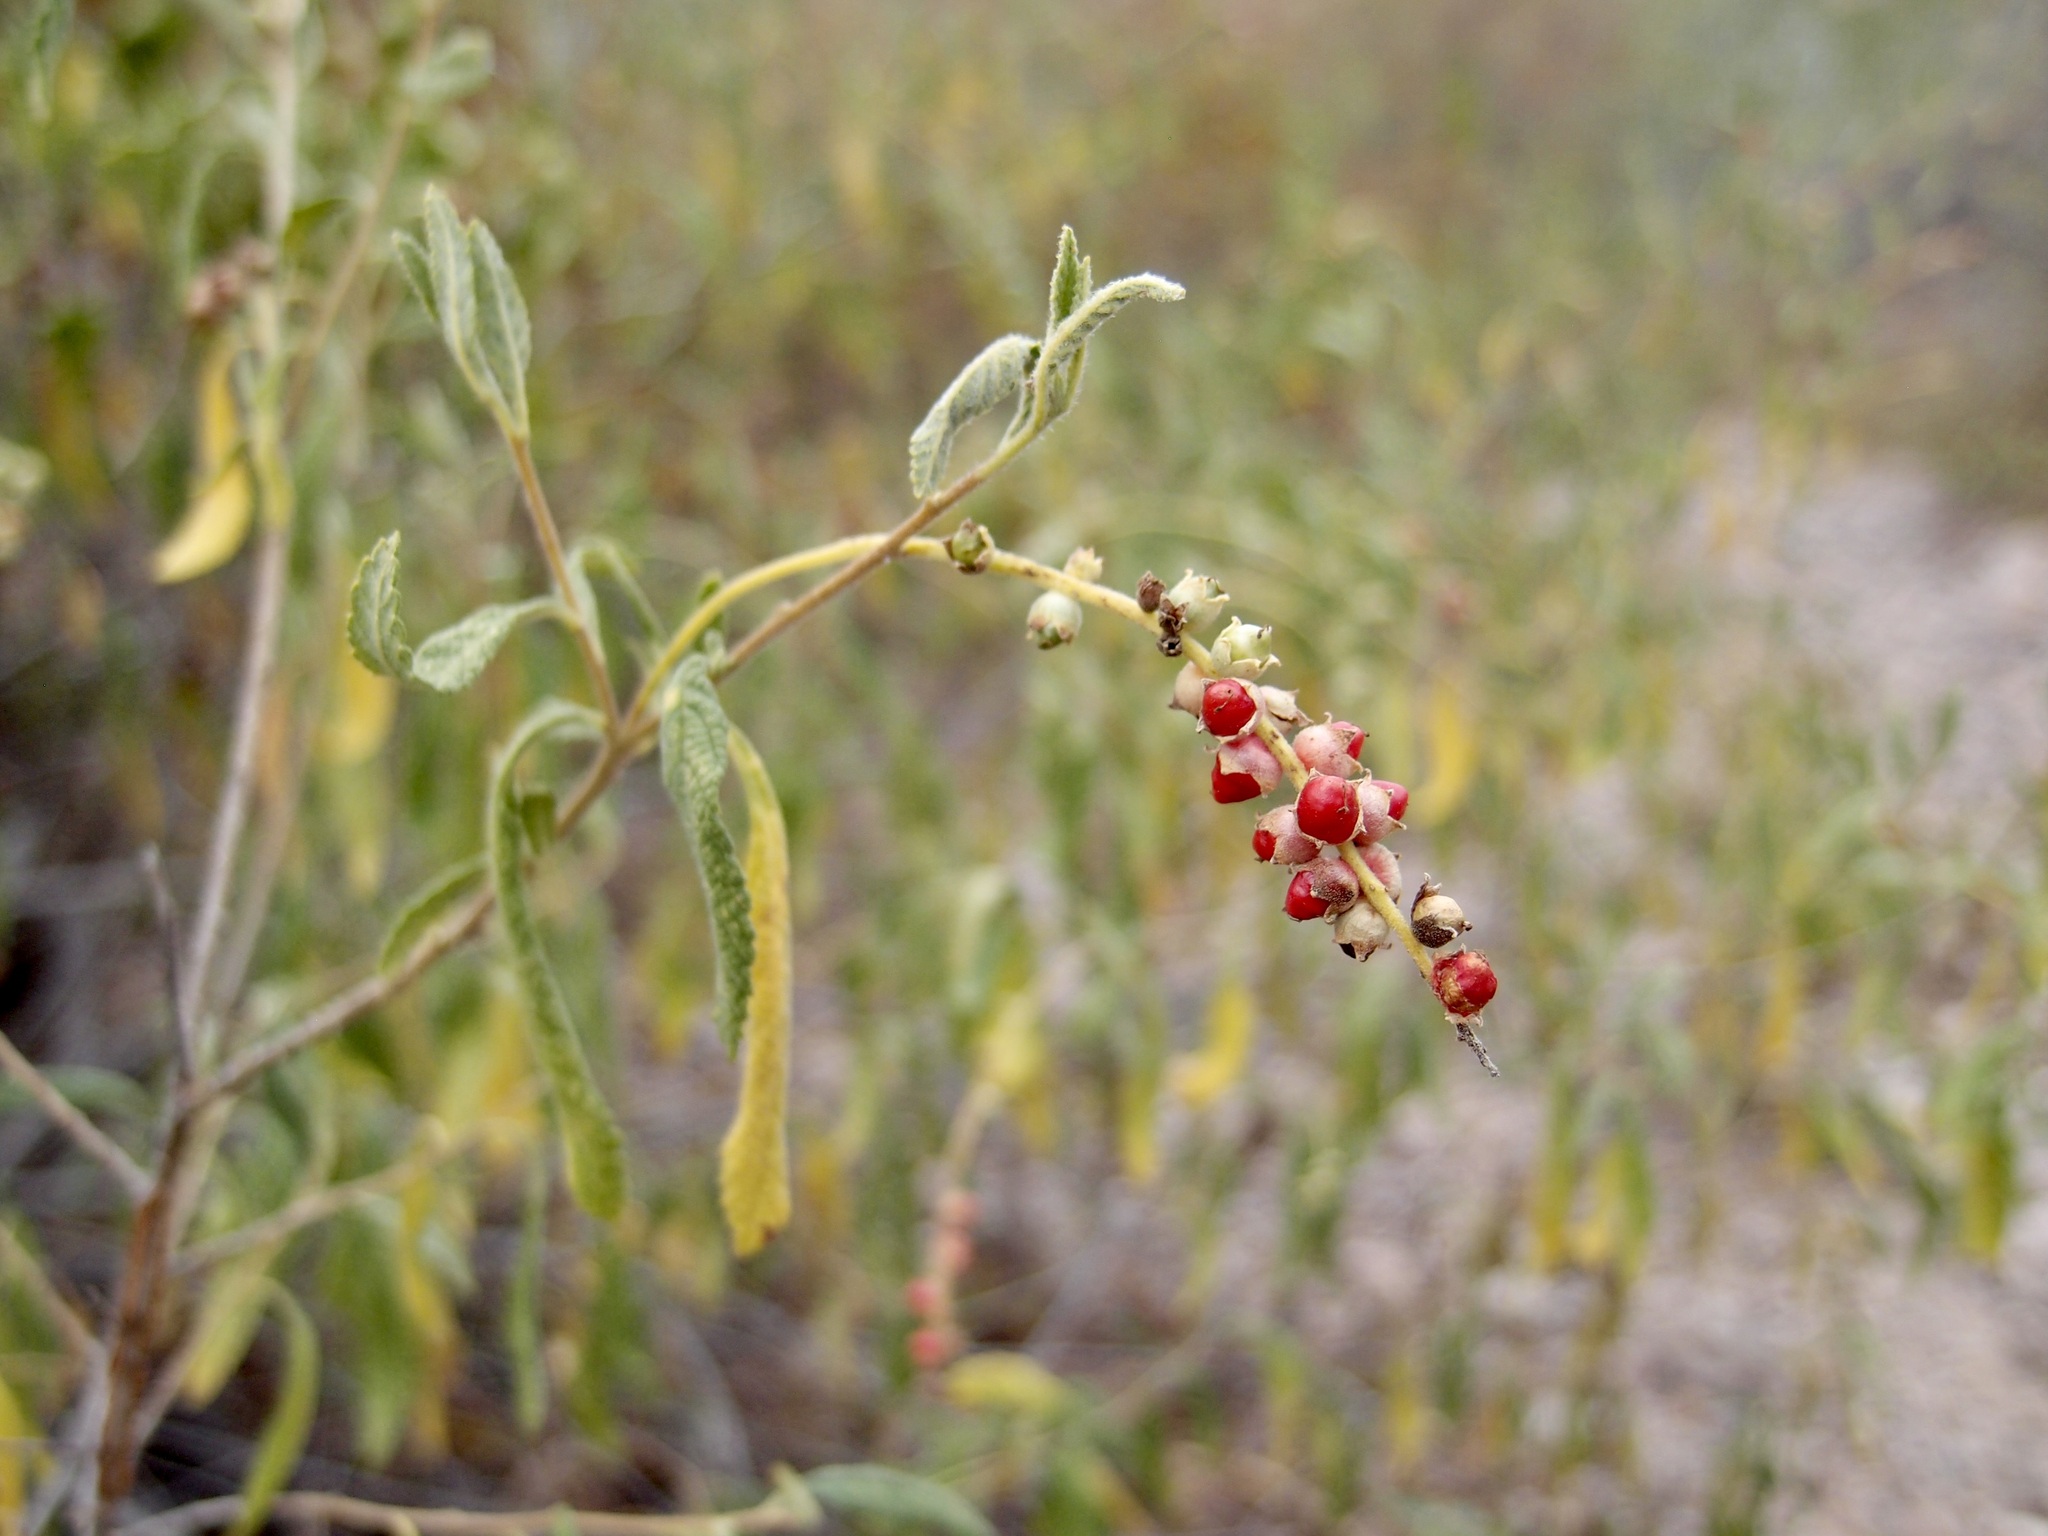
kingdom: Plantae
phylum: Tracheophyta
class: Magnoliopsida
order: Boraginales
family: Cordiaceae
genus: Varronia
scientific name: Varronia curassavica
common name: Black sage
